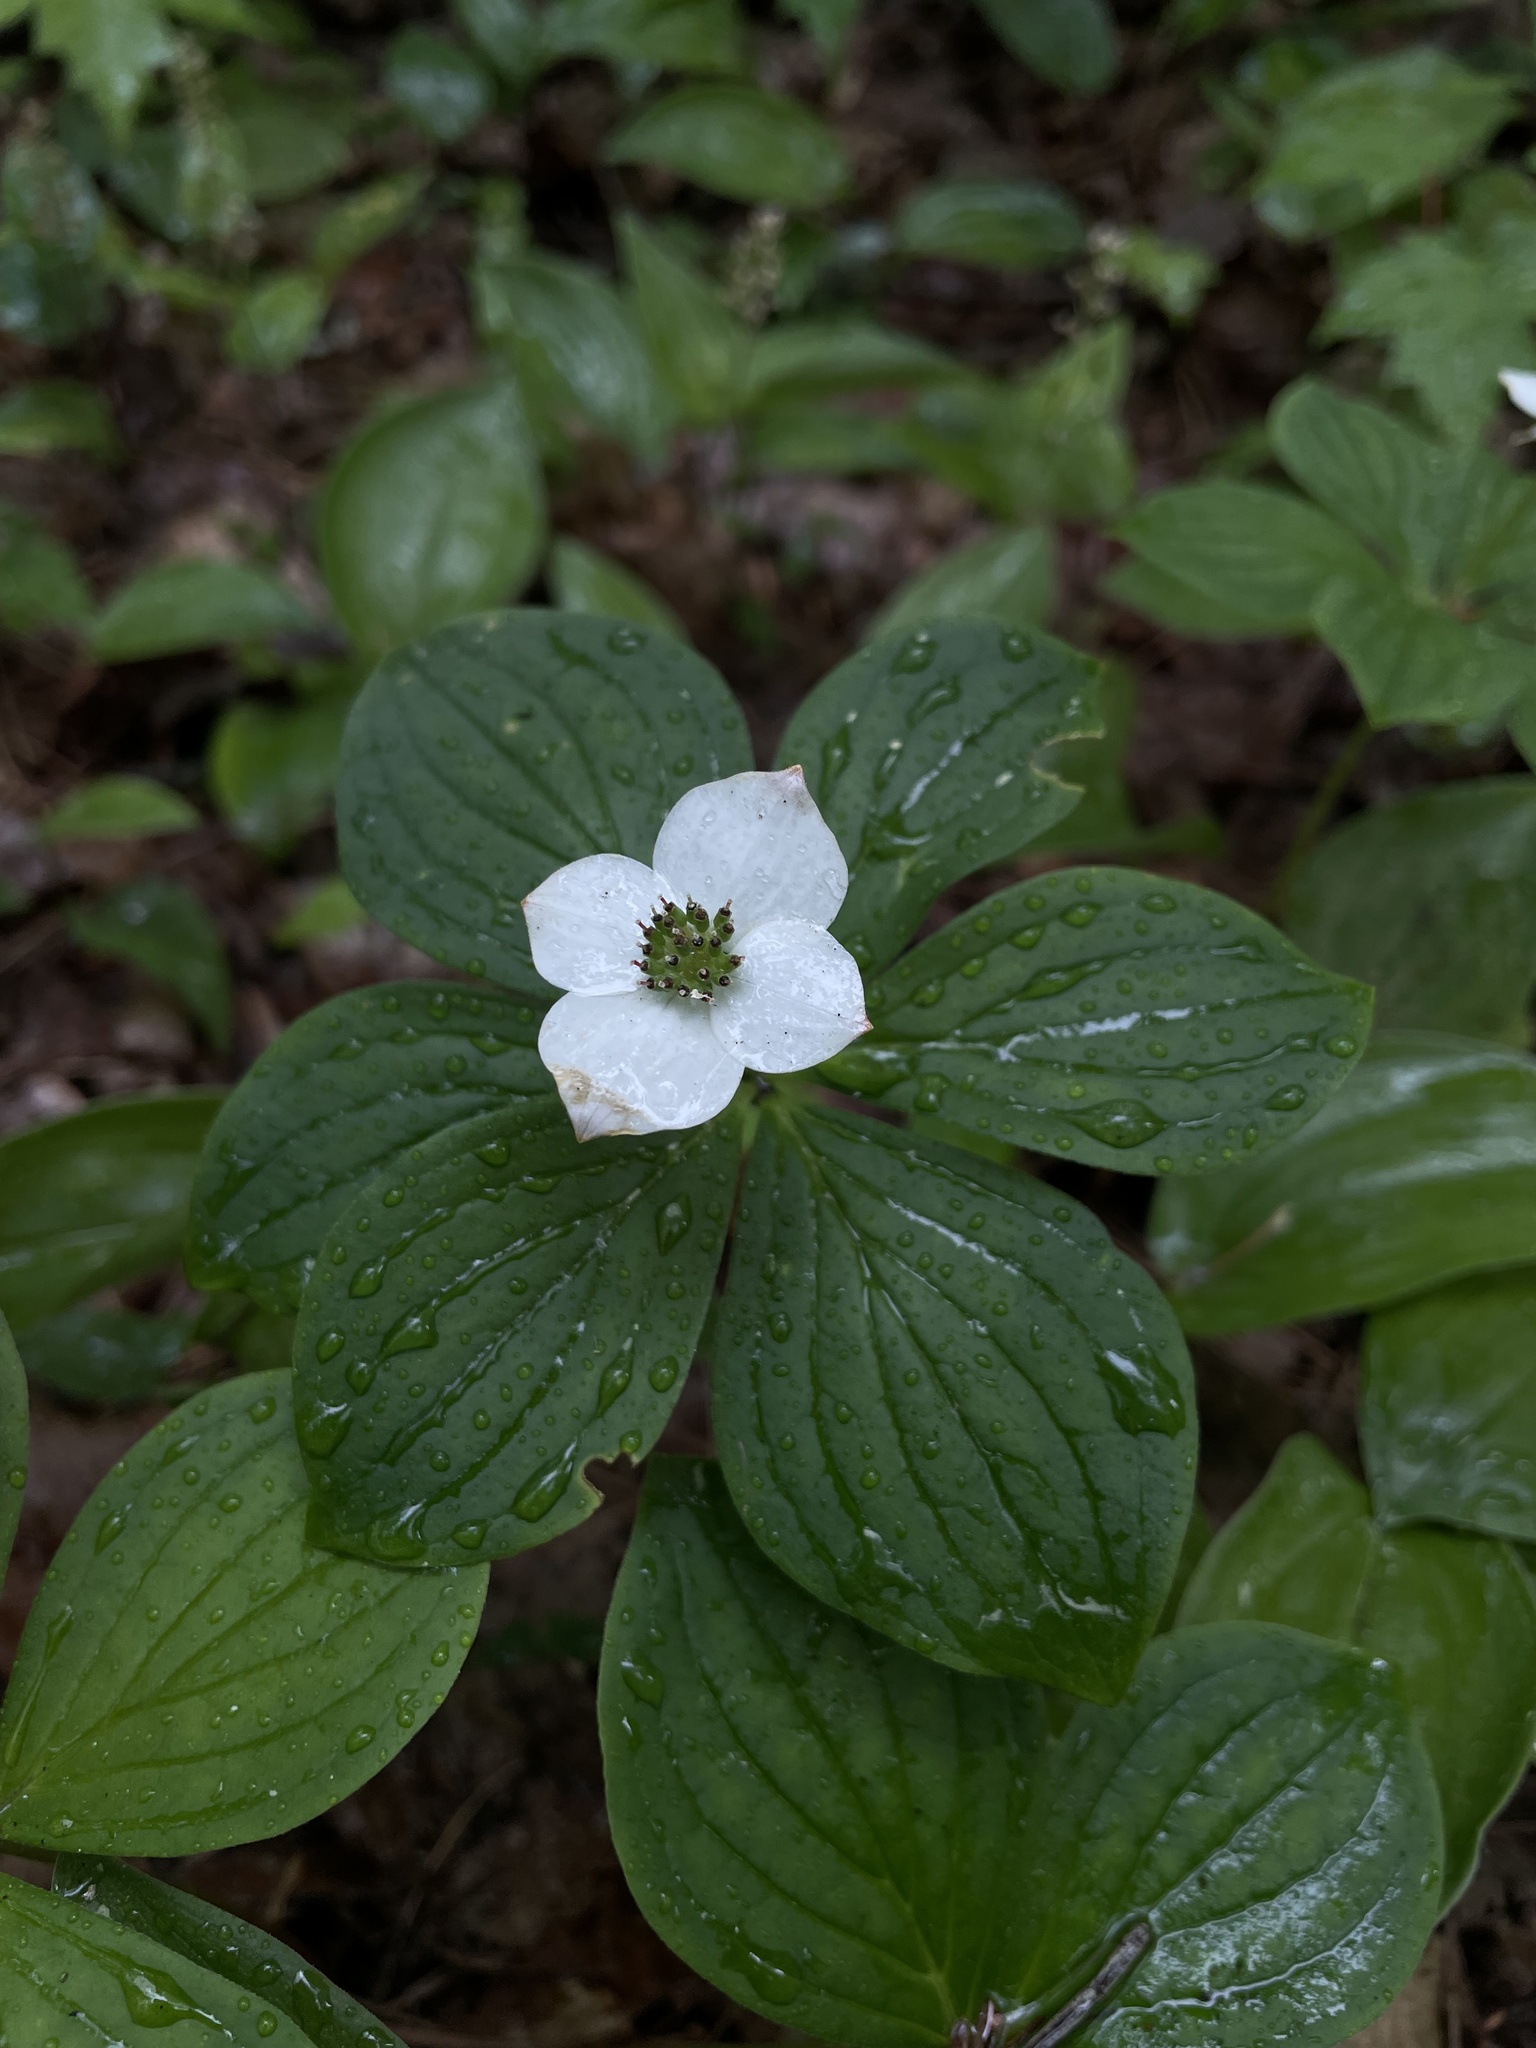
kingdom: Plantae
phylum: Tracheophyta
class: Magnoliopsida
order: Cornales
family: Cornaceae
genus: Cornus
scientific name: Cornus canadensis
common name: Creeping dogwood
